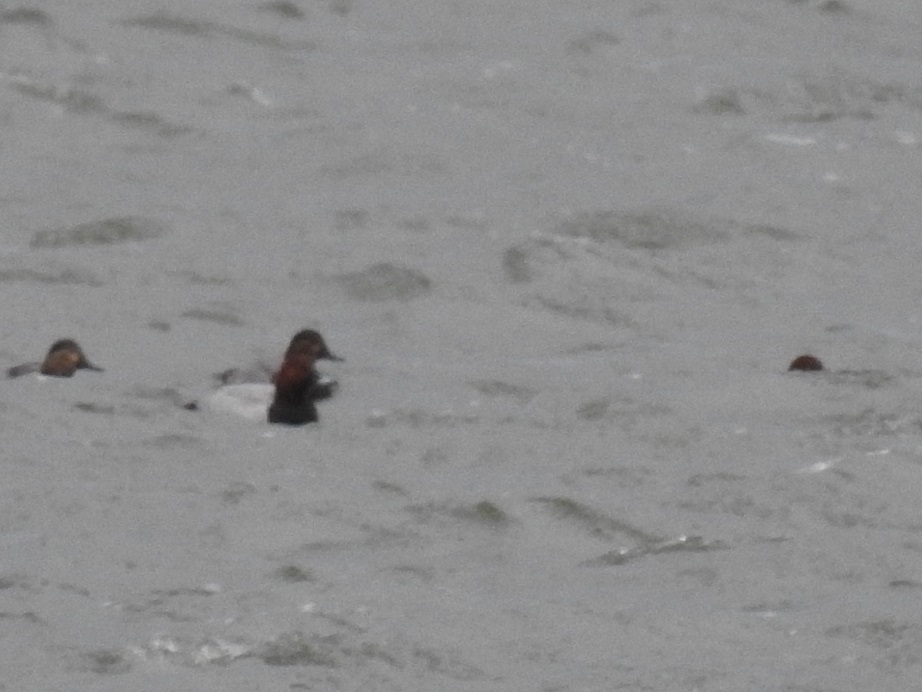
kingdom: Animalia
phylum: Chordata
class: Aves
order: Anseriformes
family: Anatidae
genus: Aythya
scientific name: Aythya ferina
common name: Common pochard
